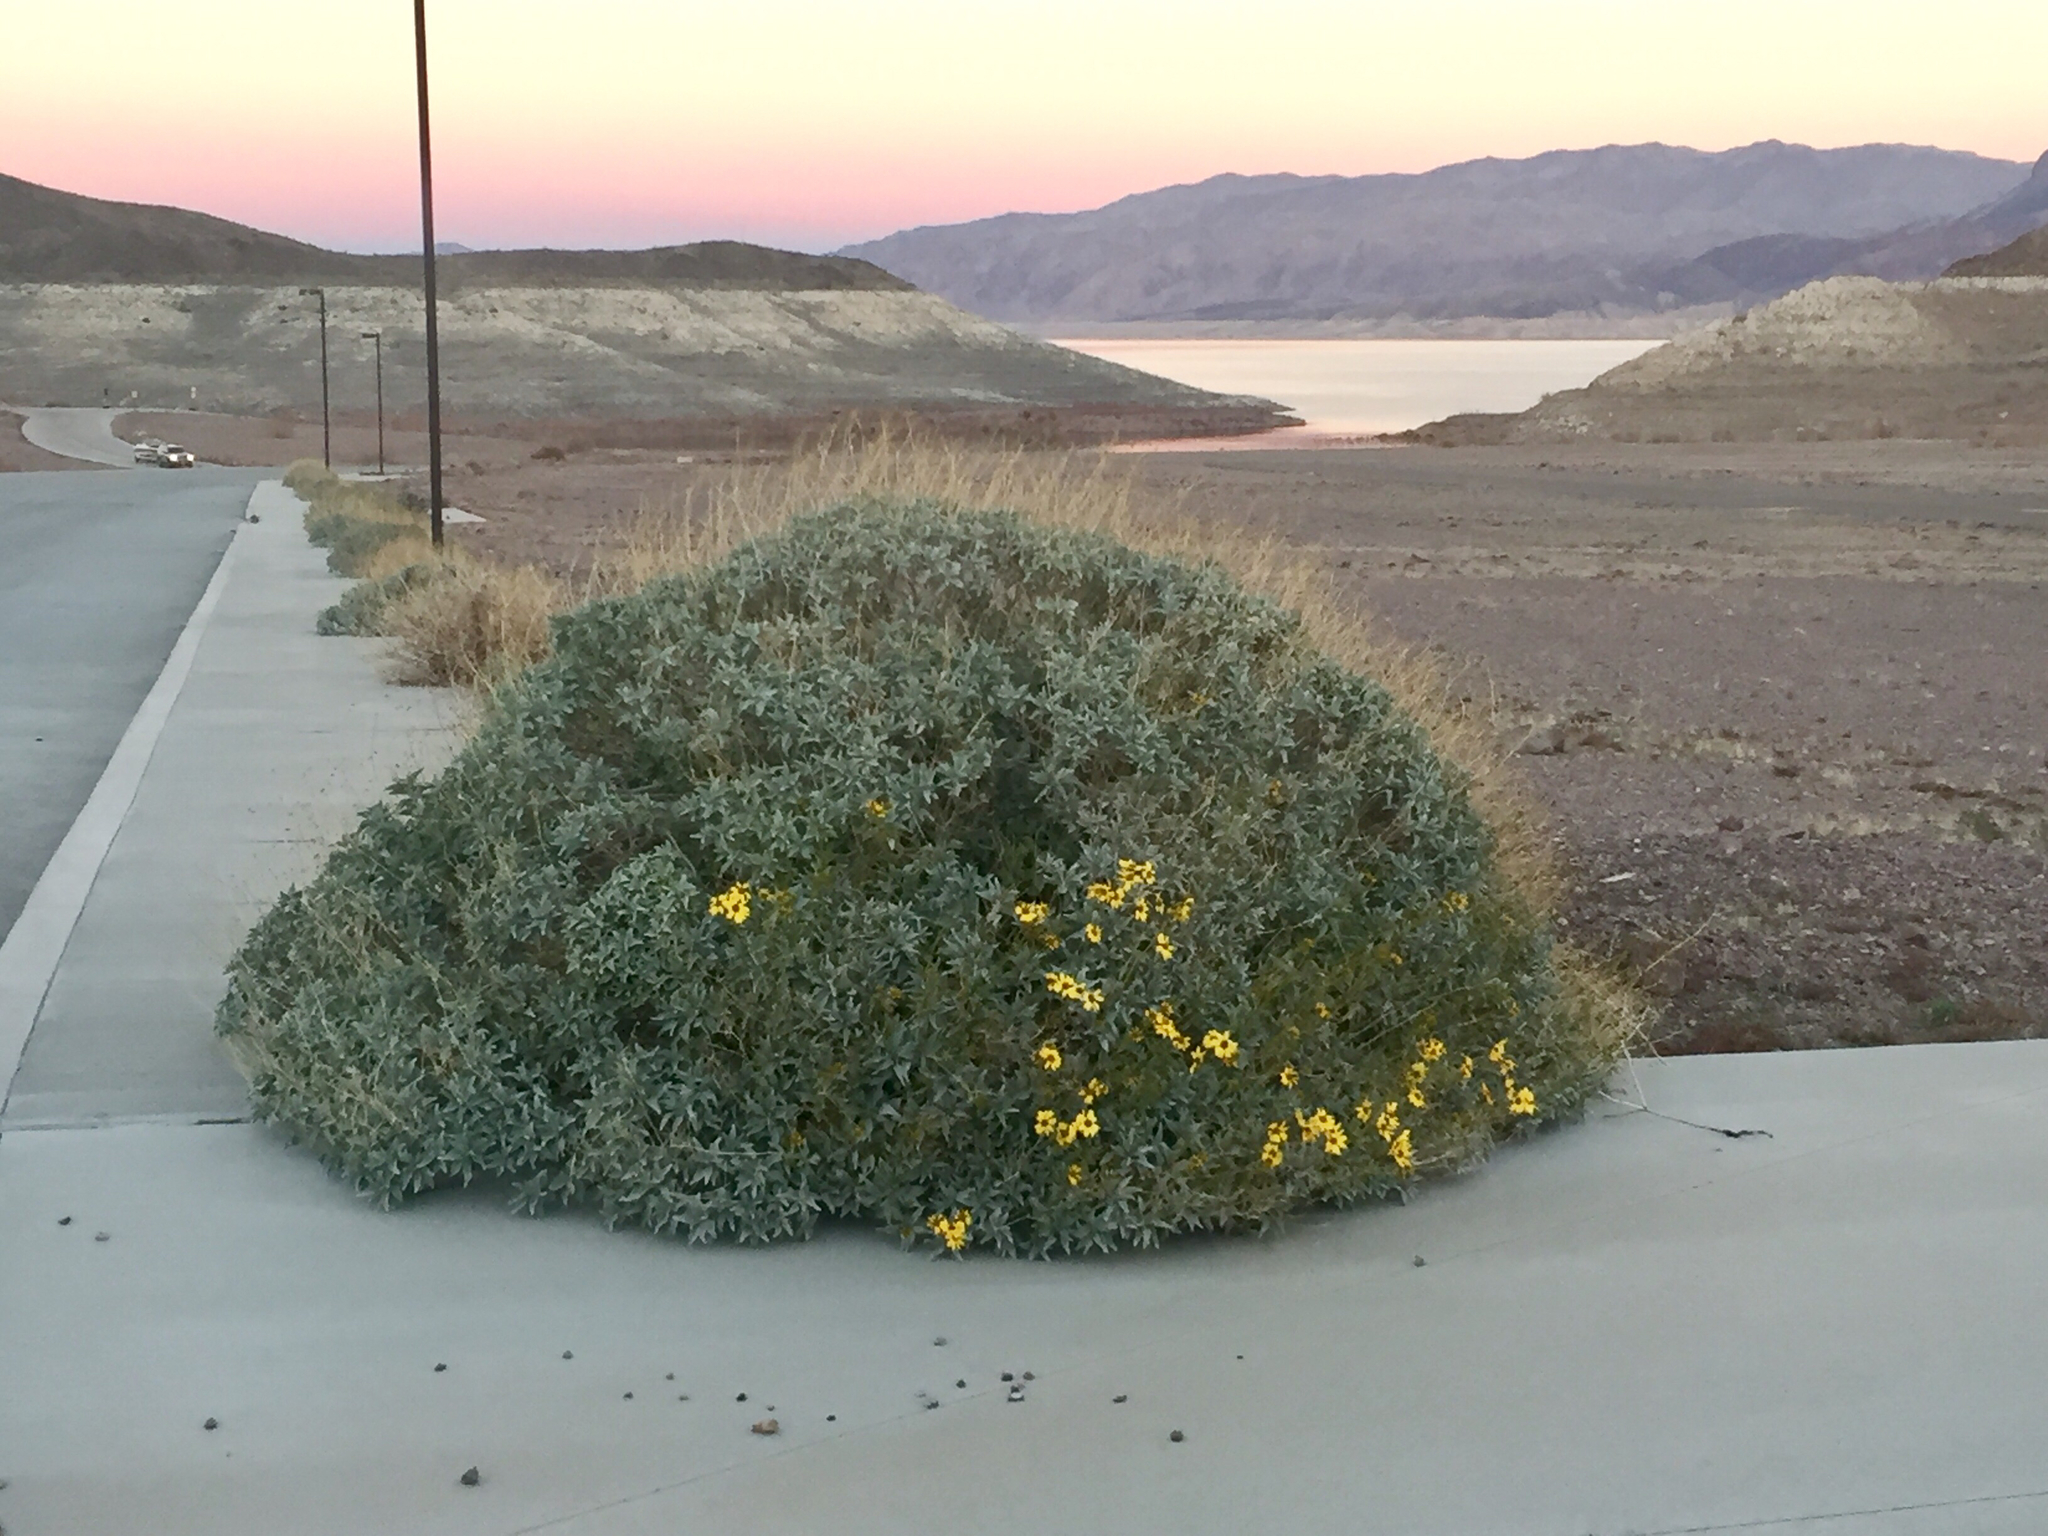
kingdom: Plantae
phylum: Tracheophyta
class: Magnoliopsida
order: Asterales
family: Asteraceae
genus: Encelia
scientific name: Encelia farinosa
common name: Brittlebush
